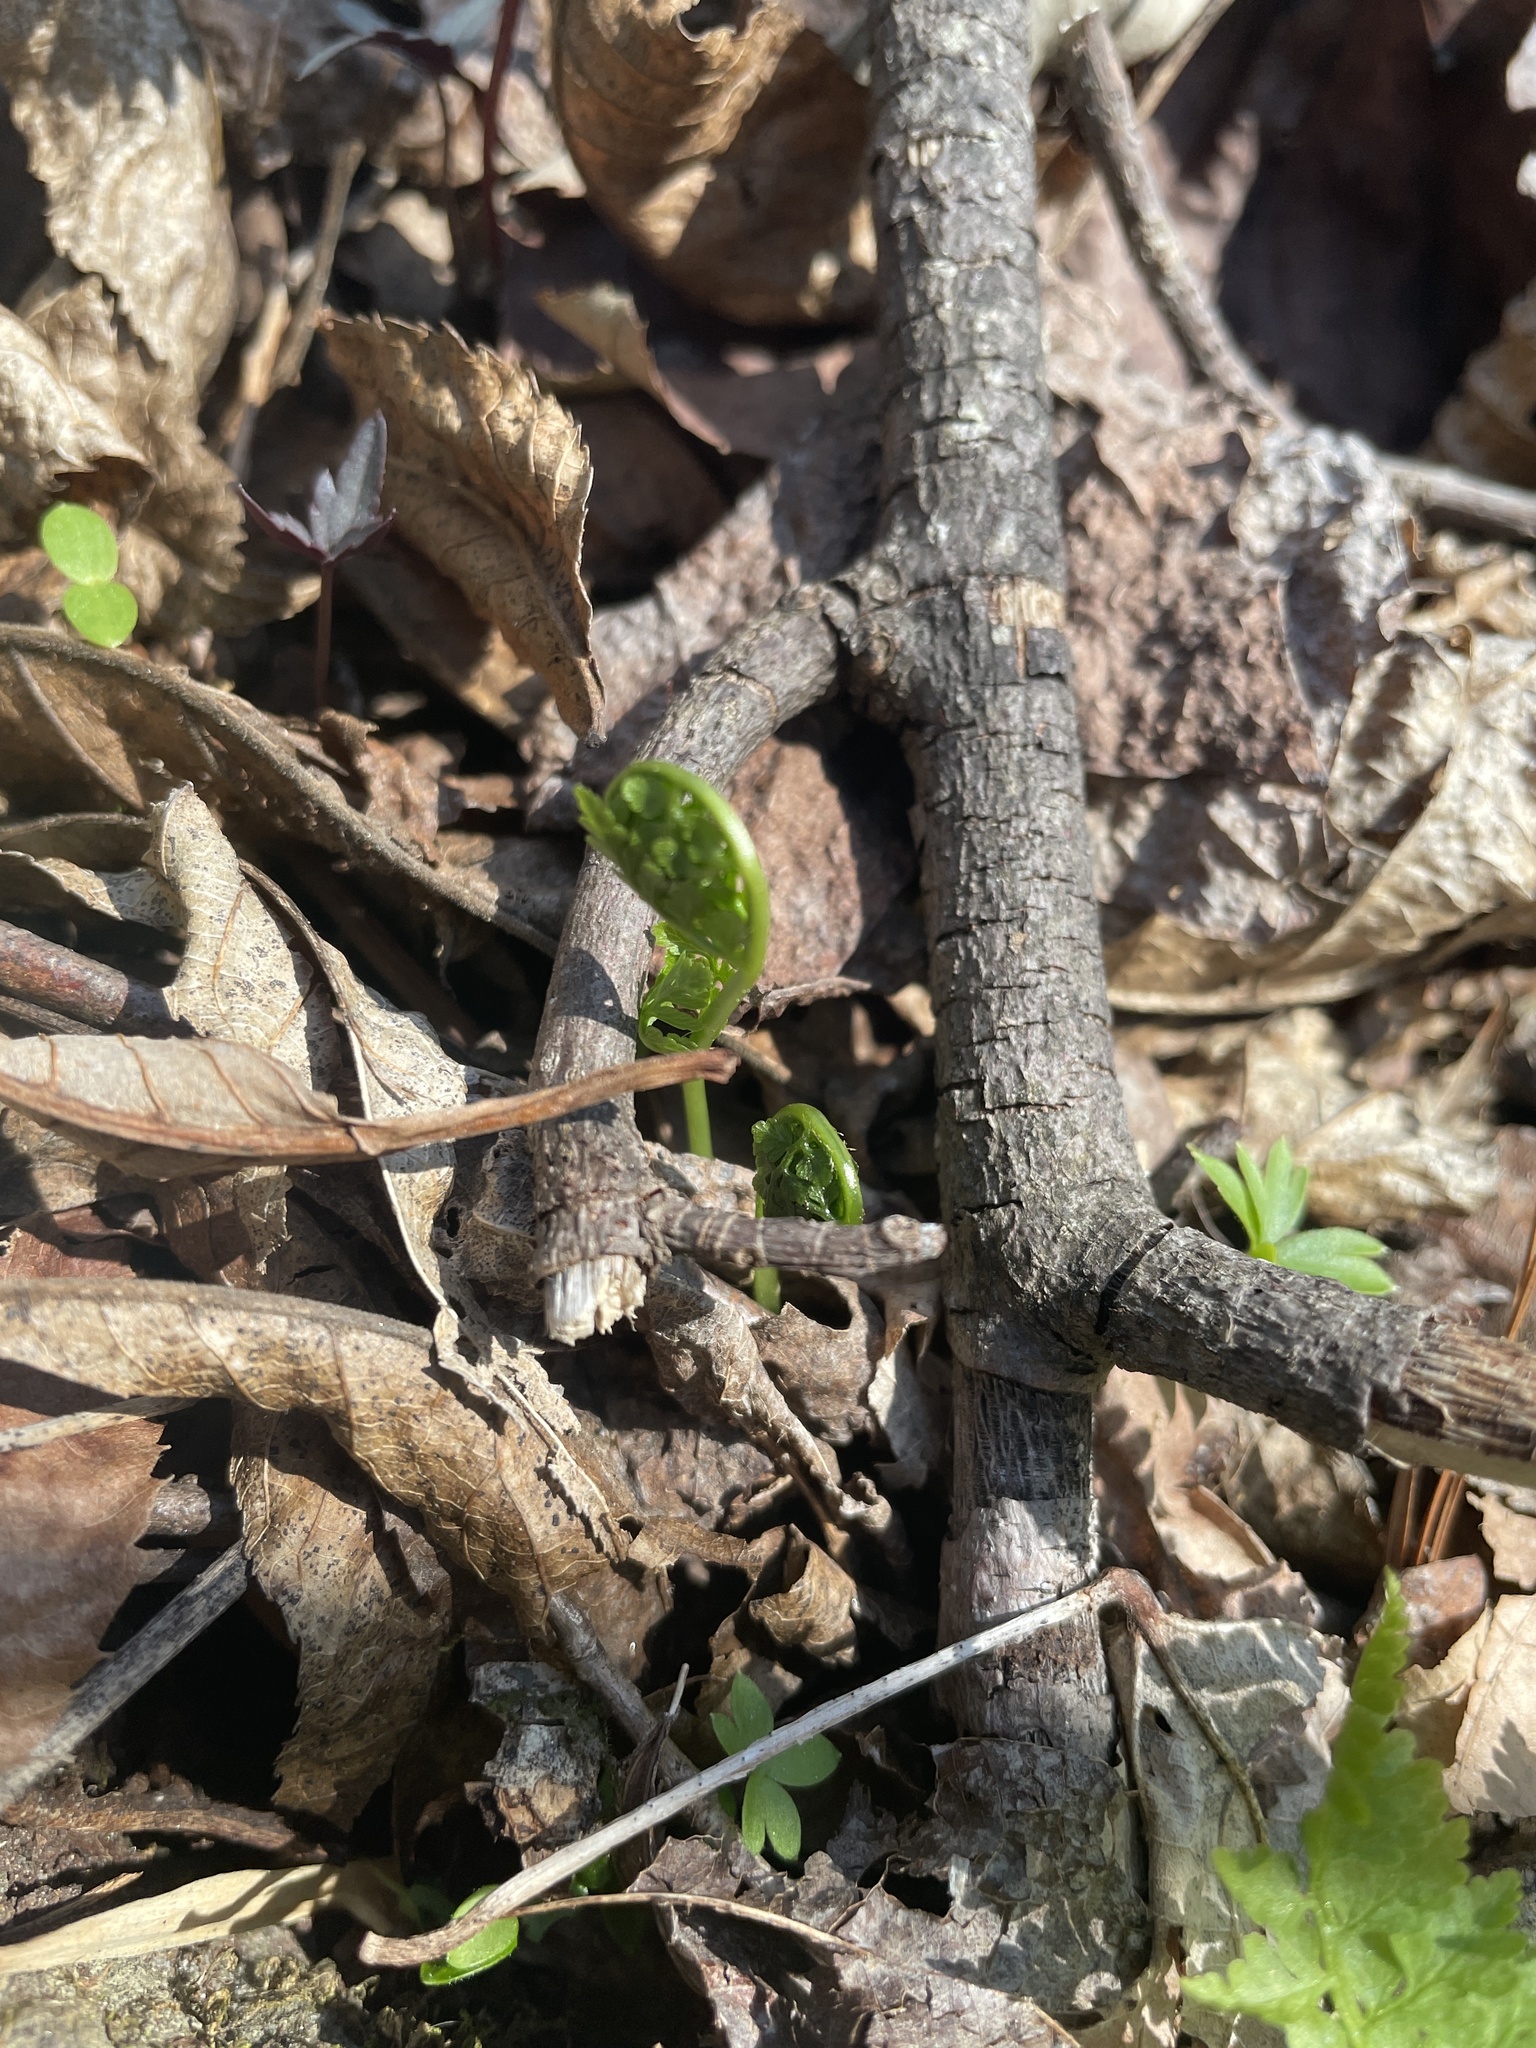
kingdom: Plantae
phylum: Tracheophyta
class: Polypodiopsida
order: Polypodiales
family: Cystopteridaceae
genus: Cystopteris
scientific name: Cystopteris protrusa
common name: Lowland brittle fern
